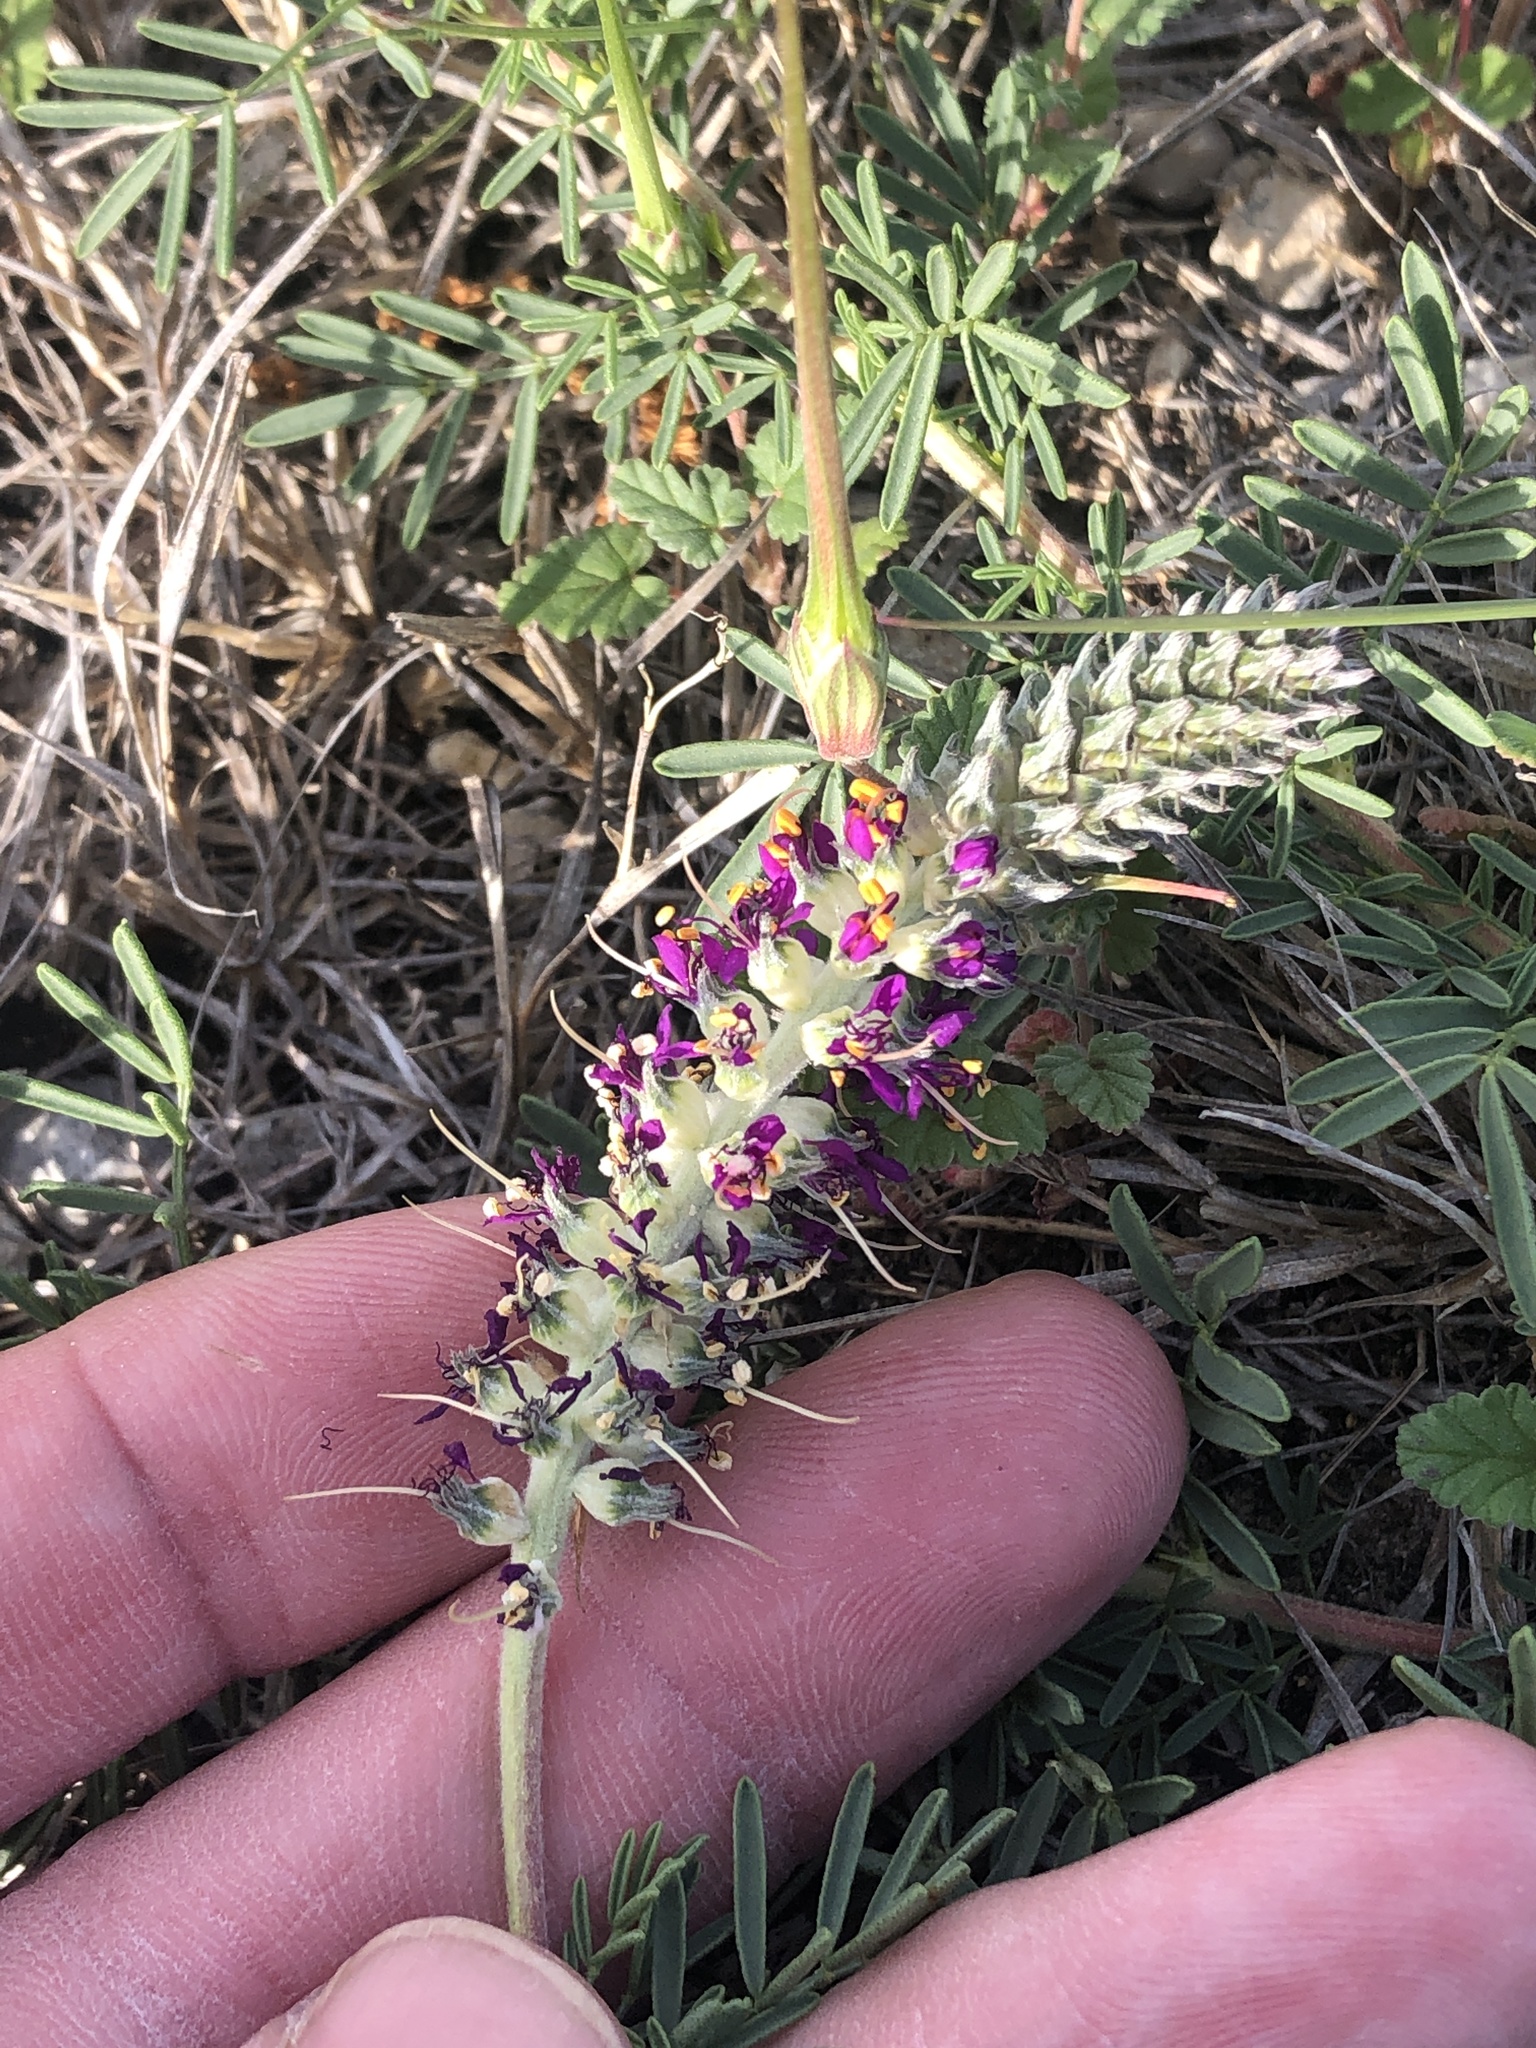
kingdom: Plantae
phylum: Tracheophyta
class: Magnoliopsida
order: Fabales
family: Fabaceae
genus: Dalea
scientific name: Dalea reverchonii
